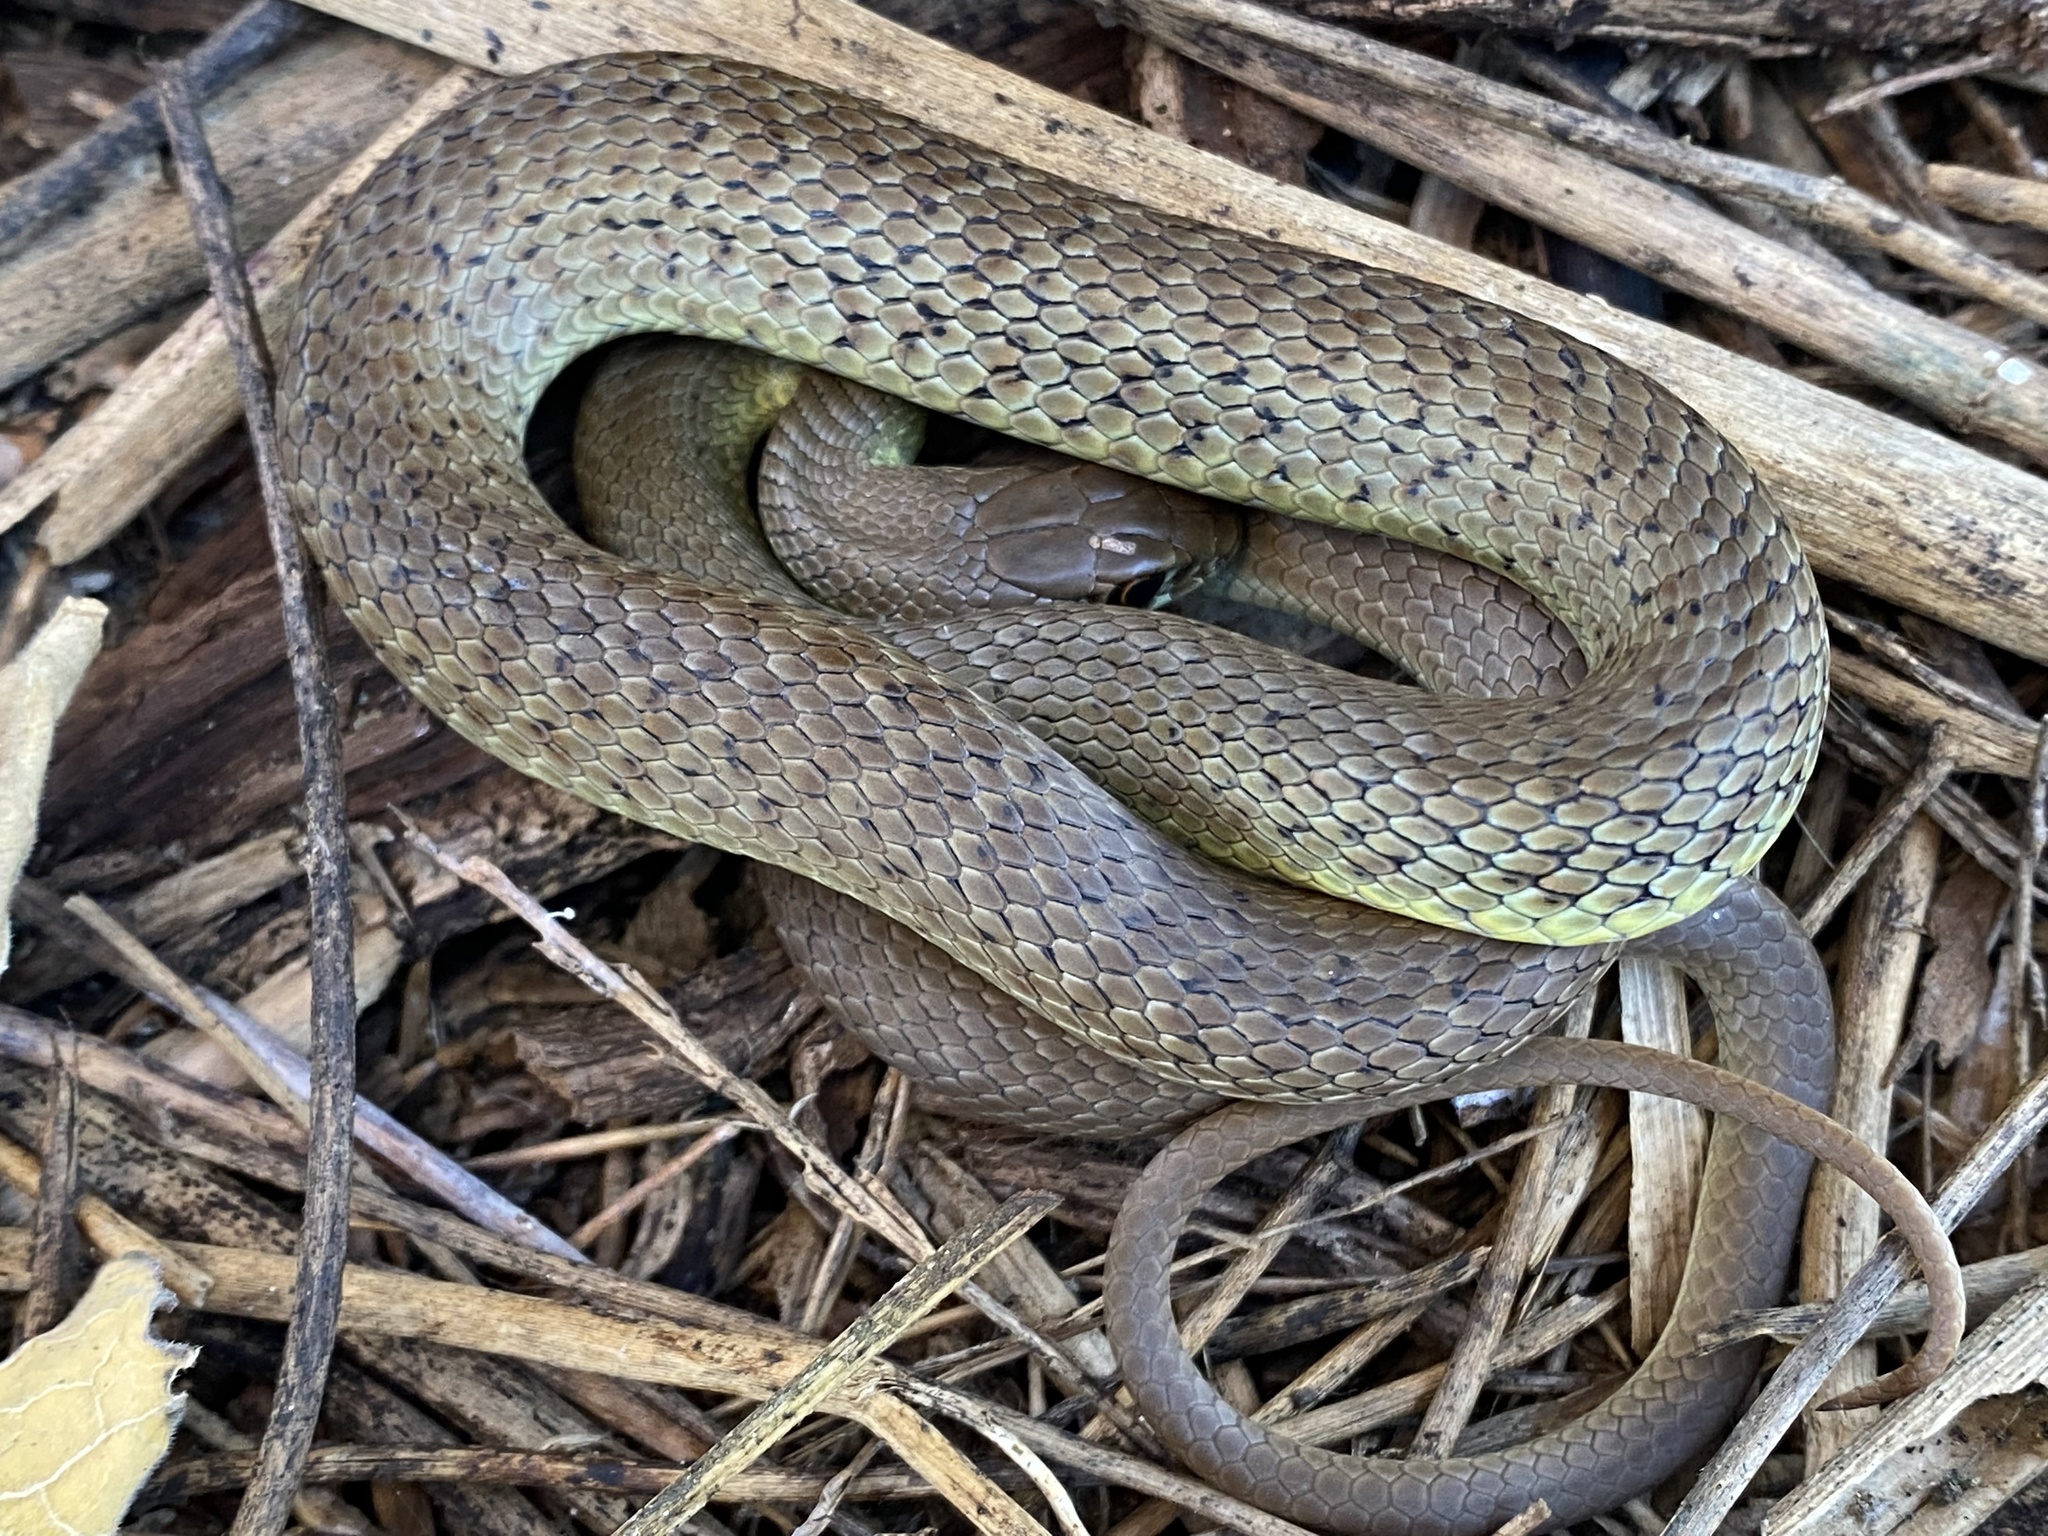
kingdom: Animalia
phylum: Chordata
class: Squamata
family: Colubridae
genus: Coluber
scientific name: Coluber constrictor
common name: Eastern racer
